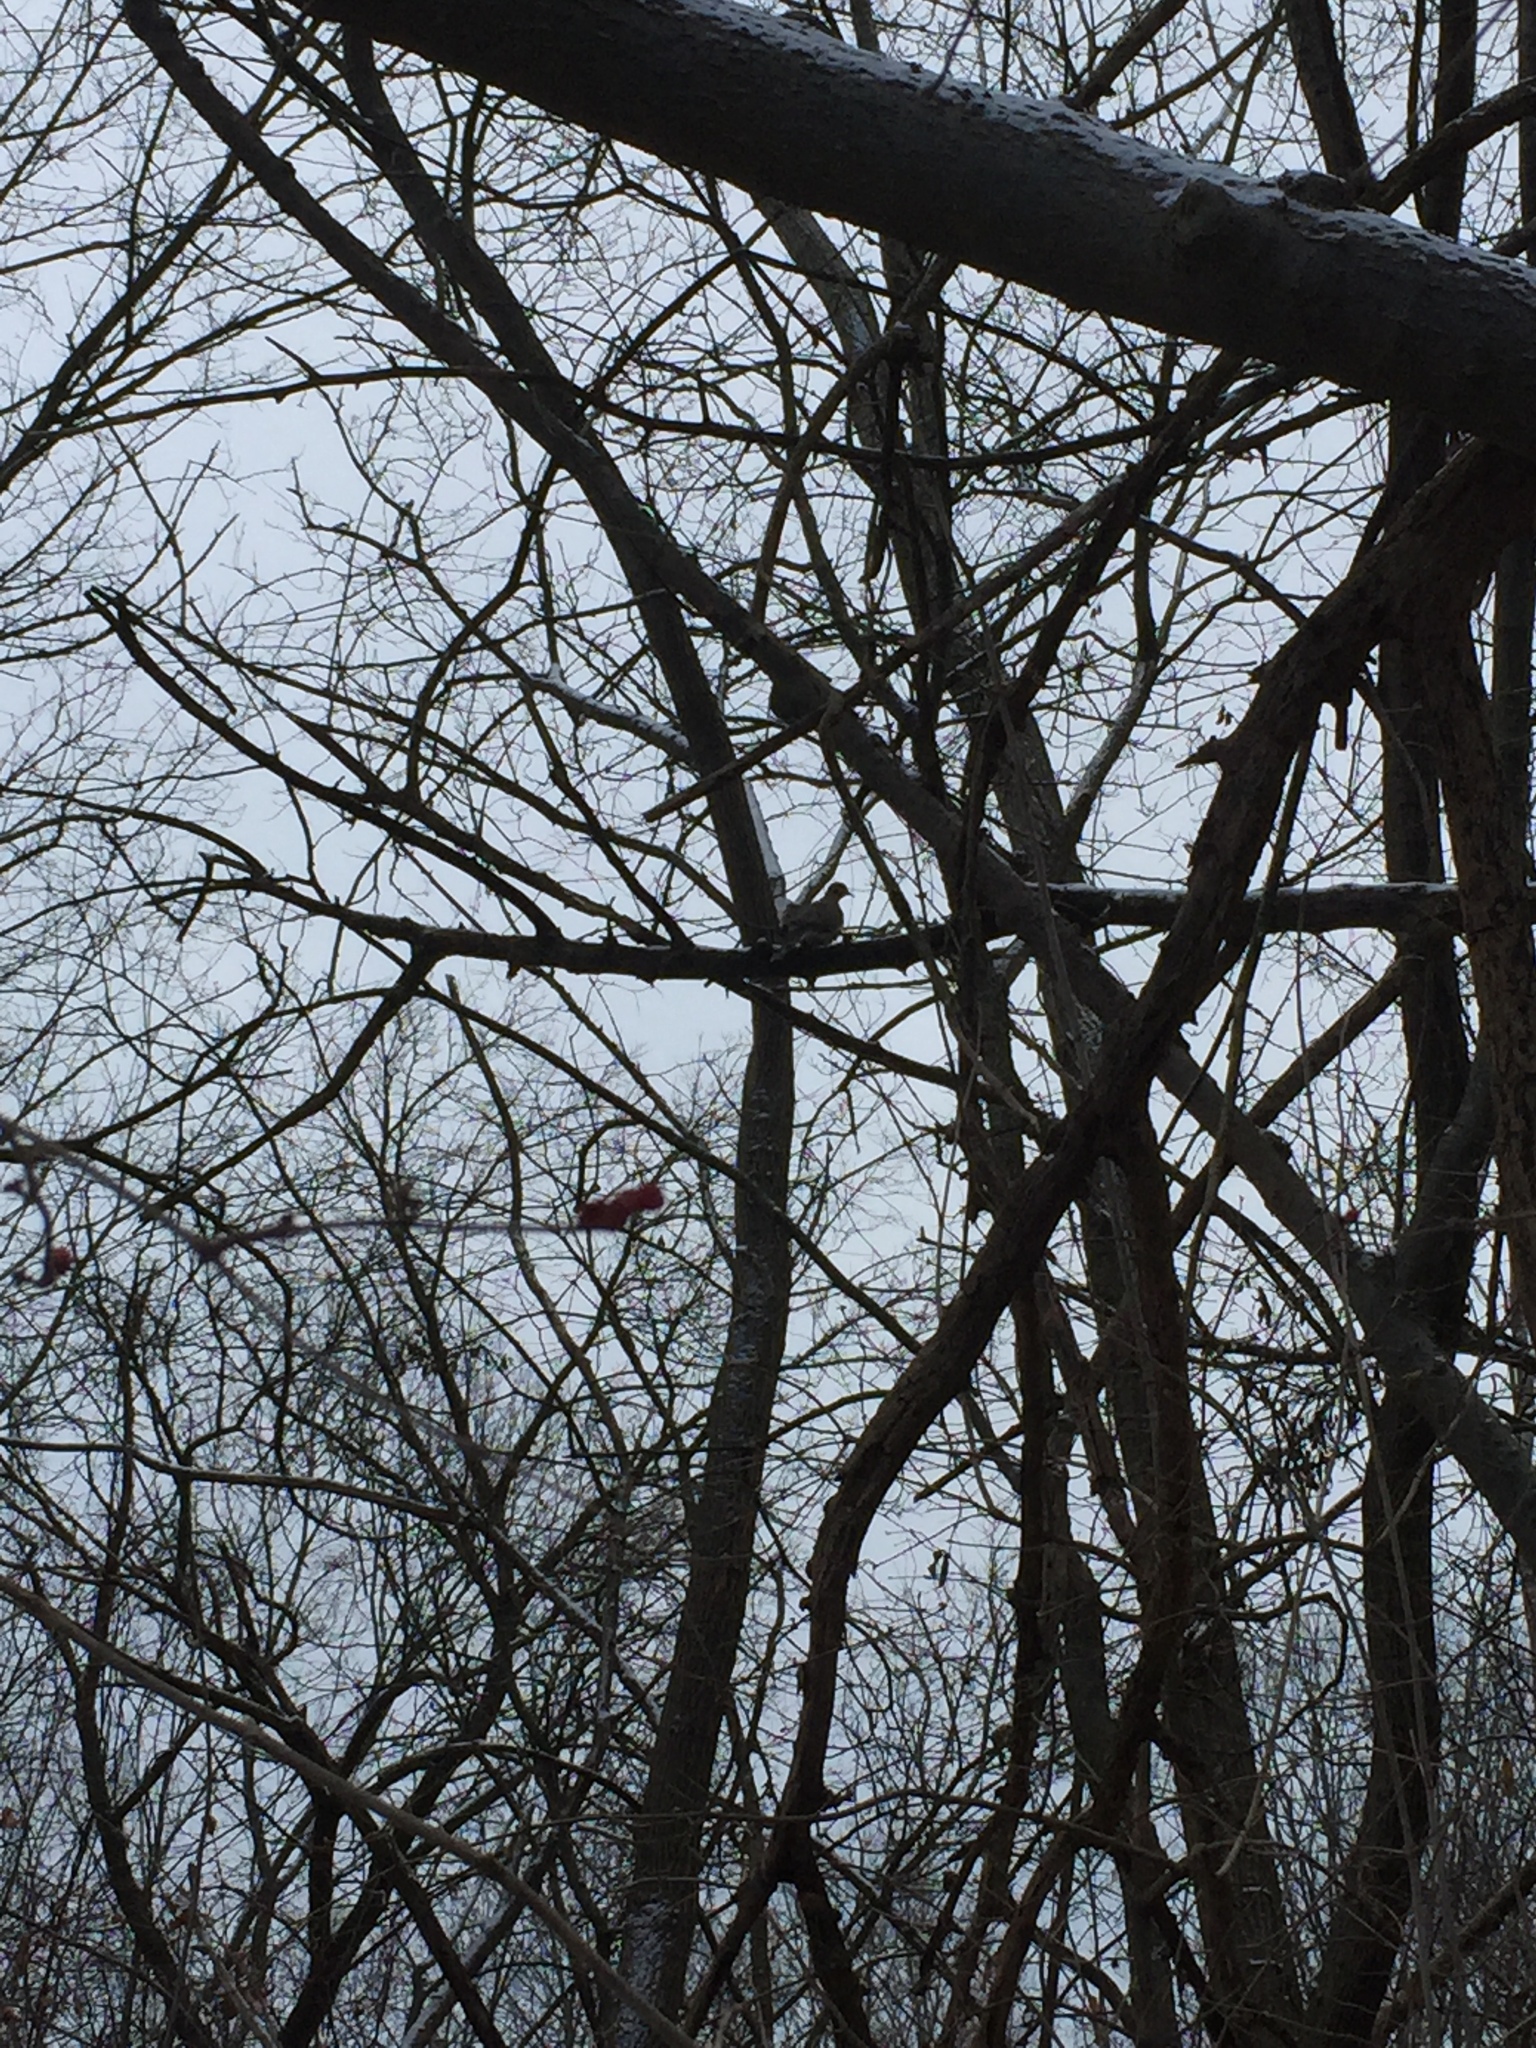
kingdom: Animalia
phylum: Chordata
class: Aves
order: Columbiformes
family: Columbidae
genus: Zenaida
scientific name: Zenaida macroura
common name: Mourning dove
